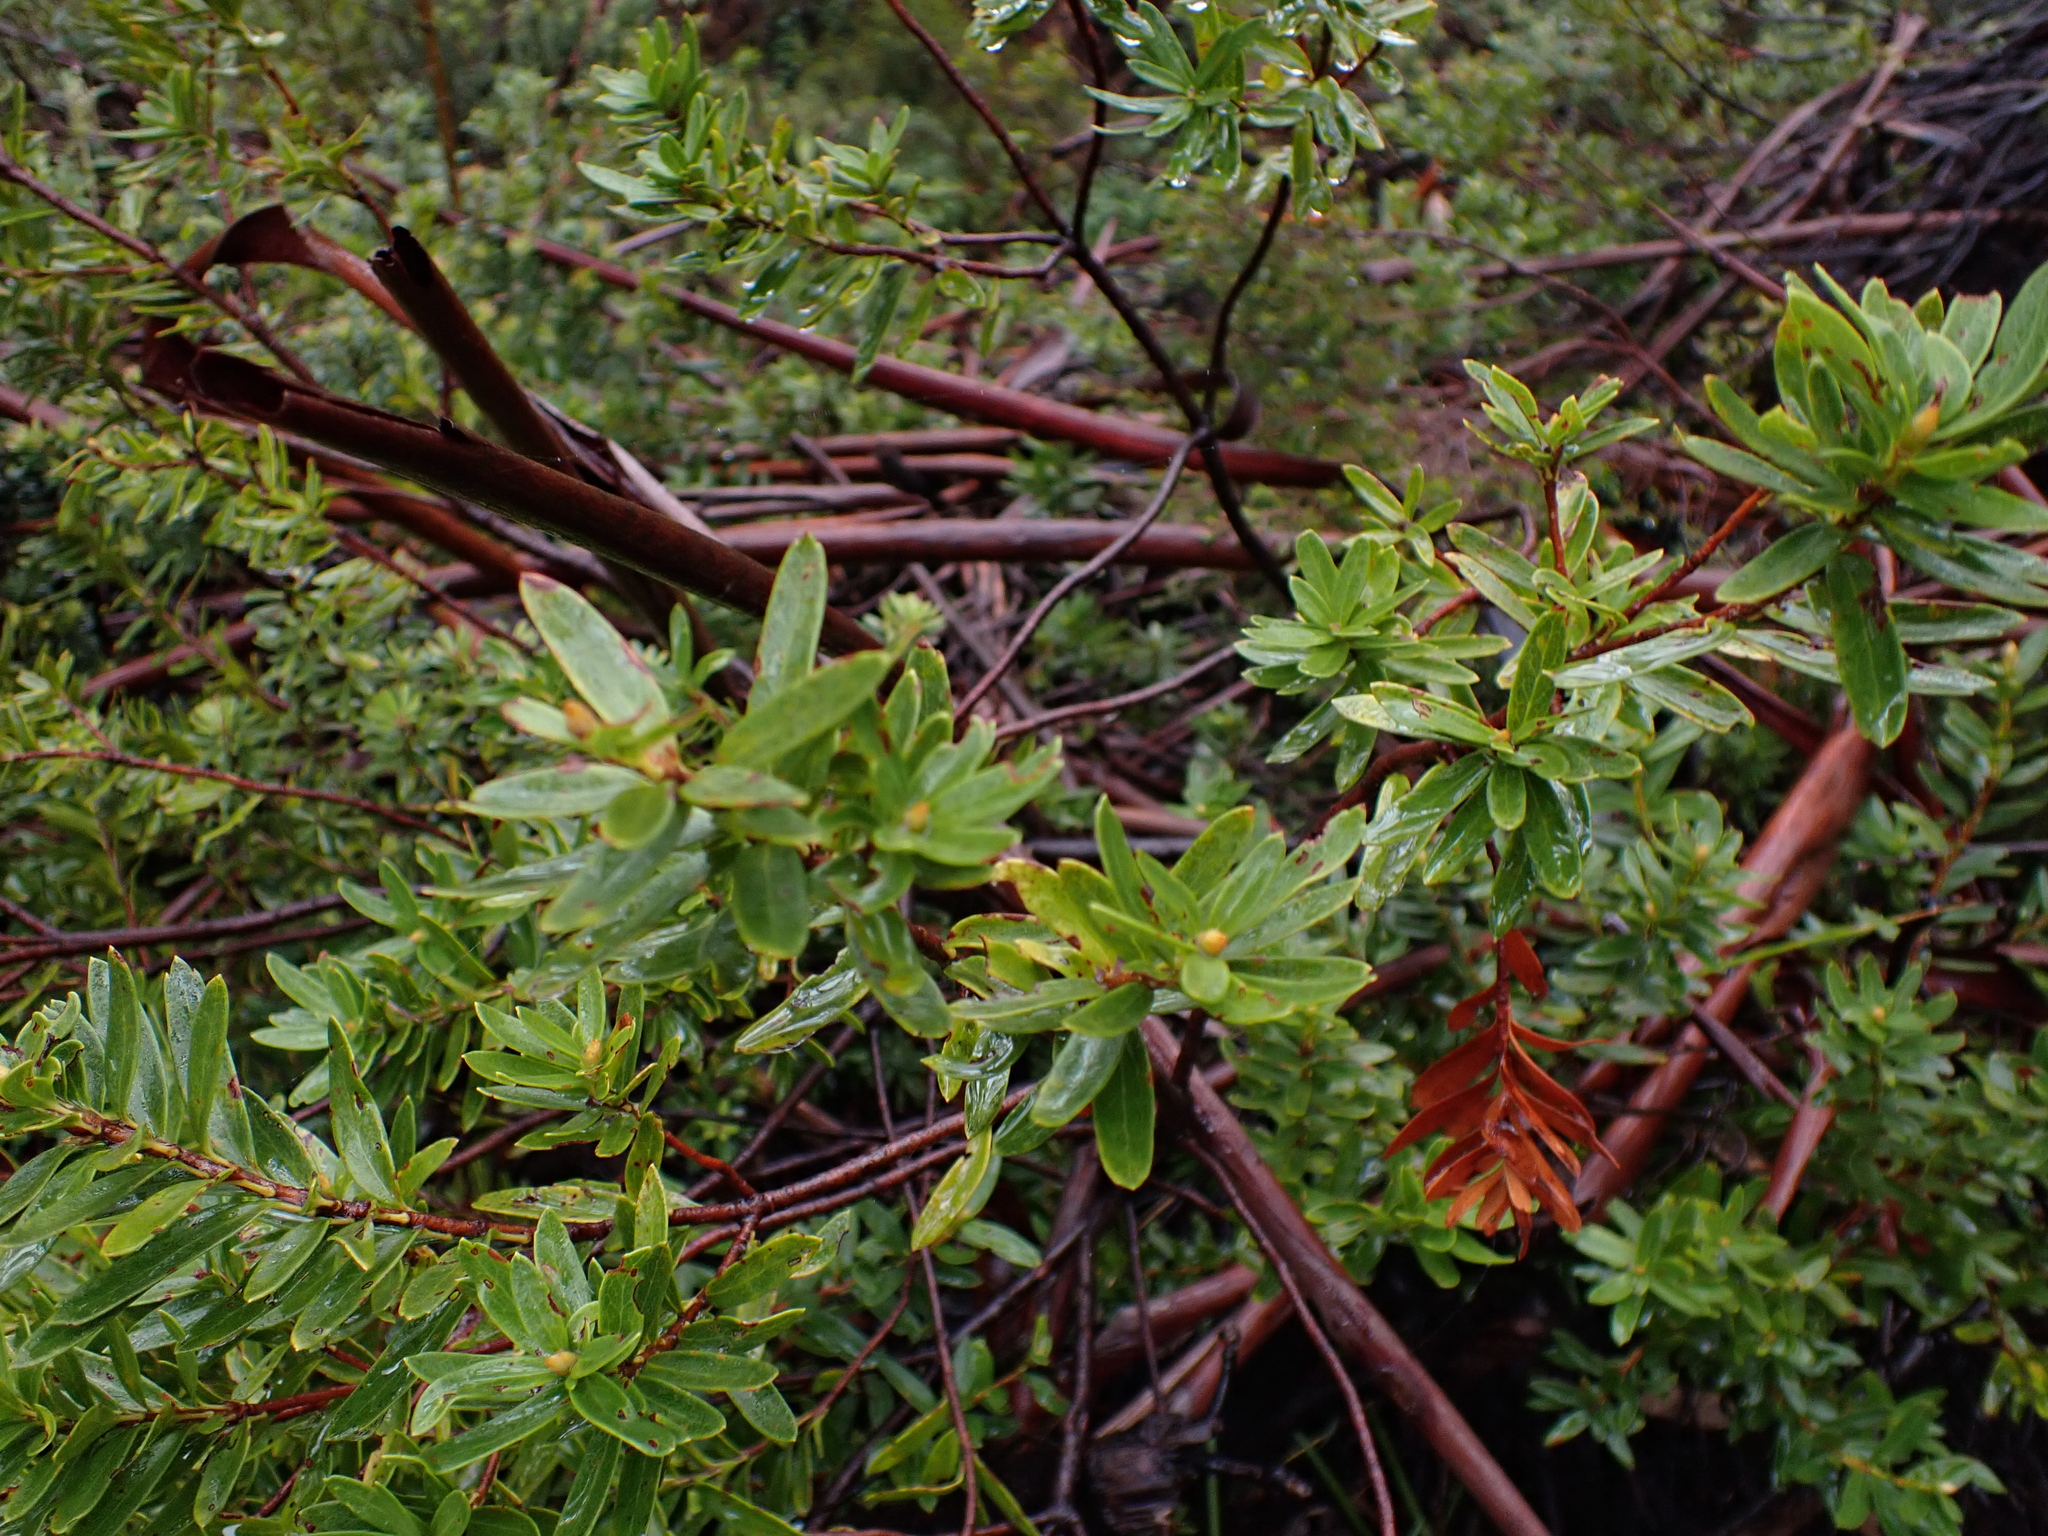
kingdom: Plantae
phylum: Tracheophyta
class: Magnoliopsida
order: Proteales
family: Proteaceae
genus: Orites
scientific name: Orites lancifolius
